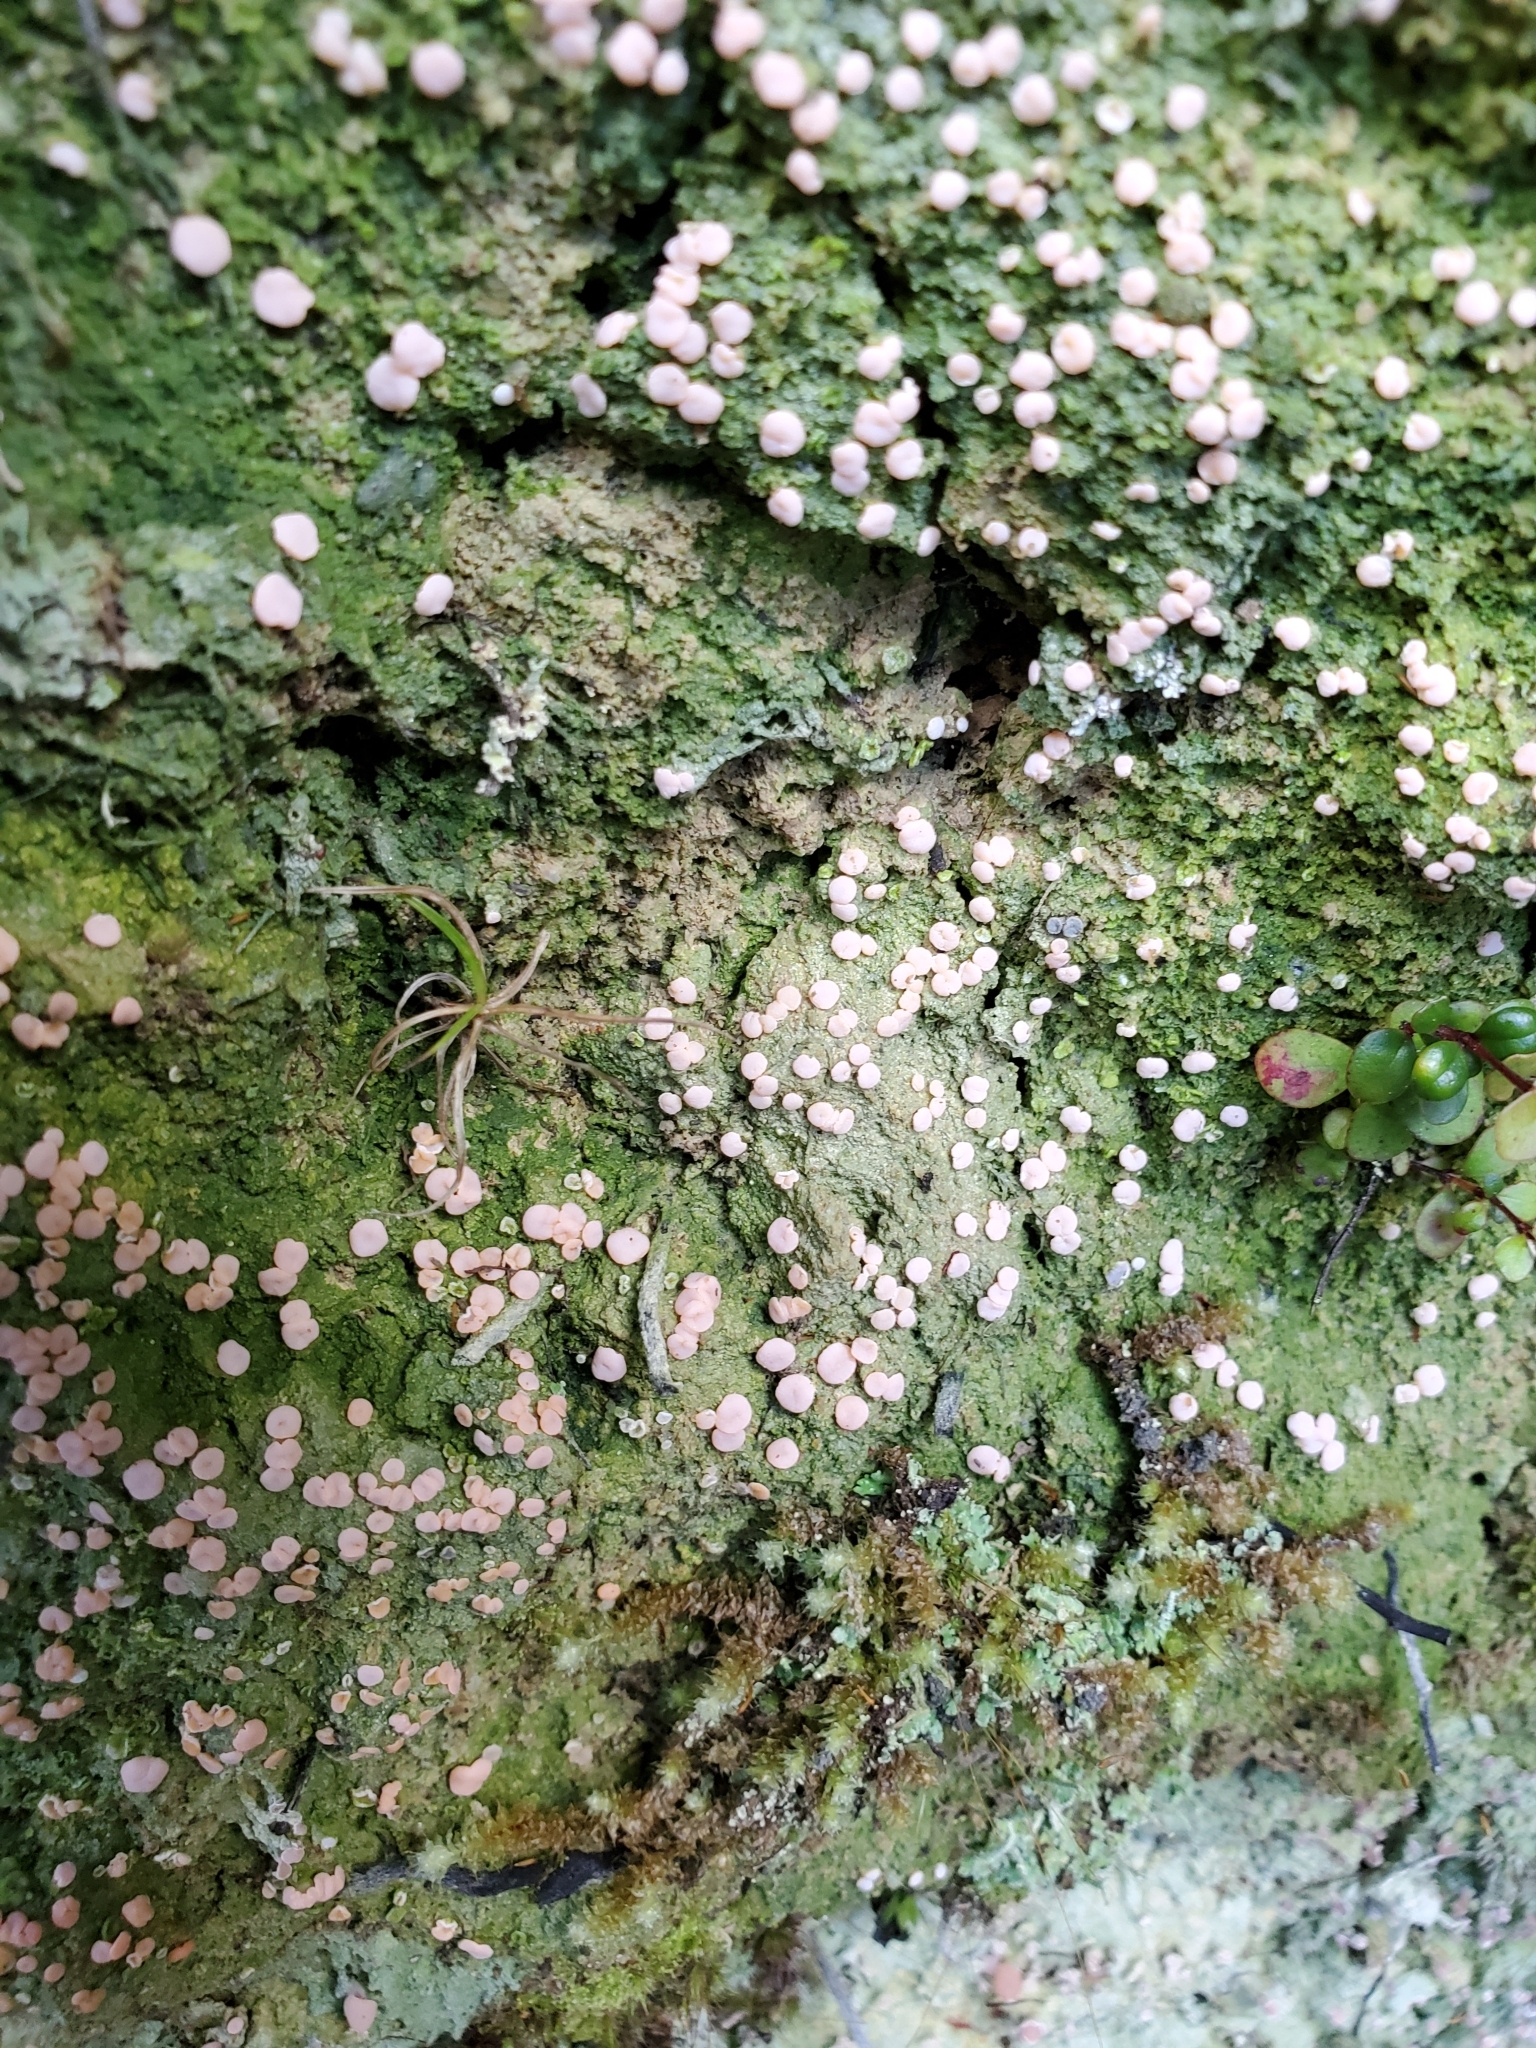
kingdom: Fungi
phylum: Ascomycota
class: Lecanoromycetes
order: Pertusariales
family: Icmadophilaceae
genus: Dibaeis
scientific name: Dibaeis absoluta
